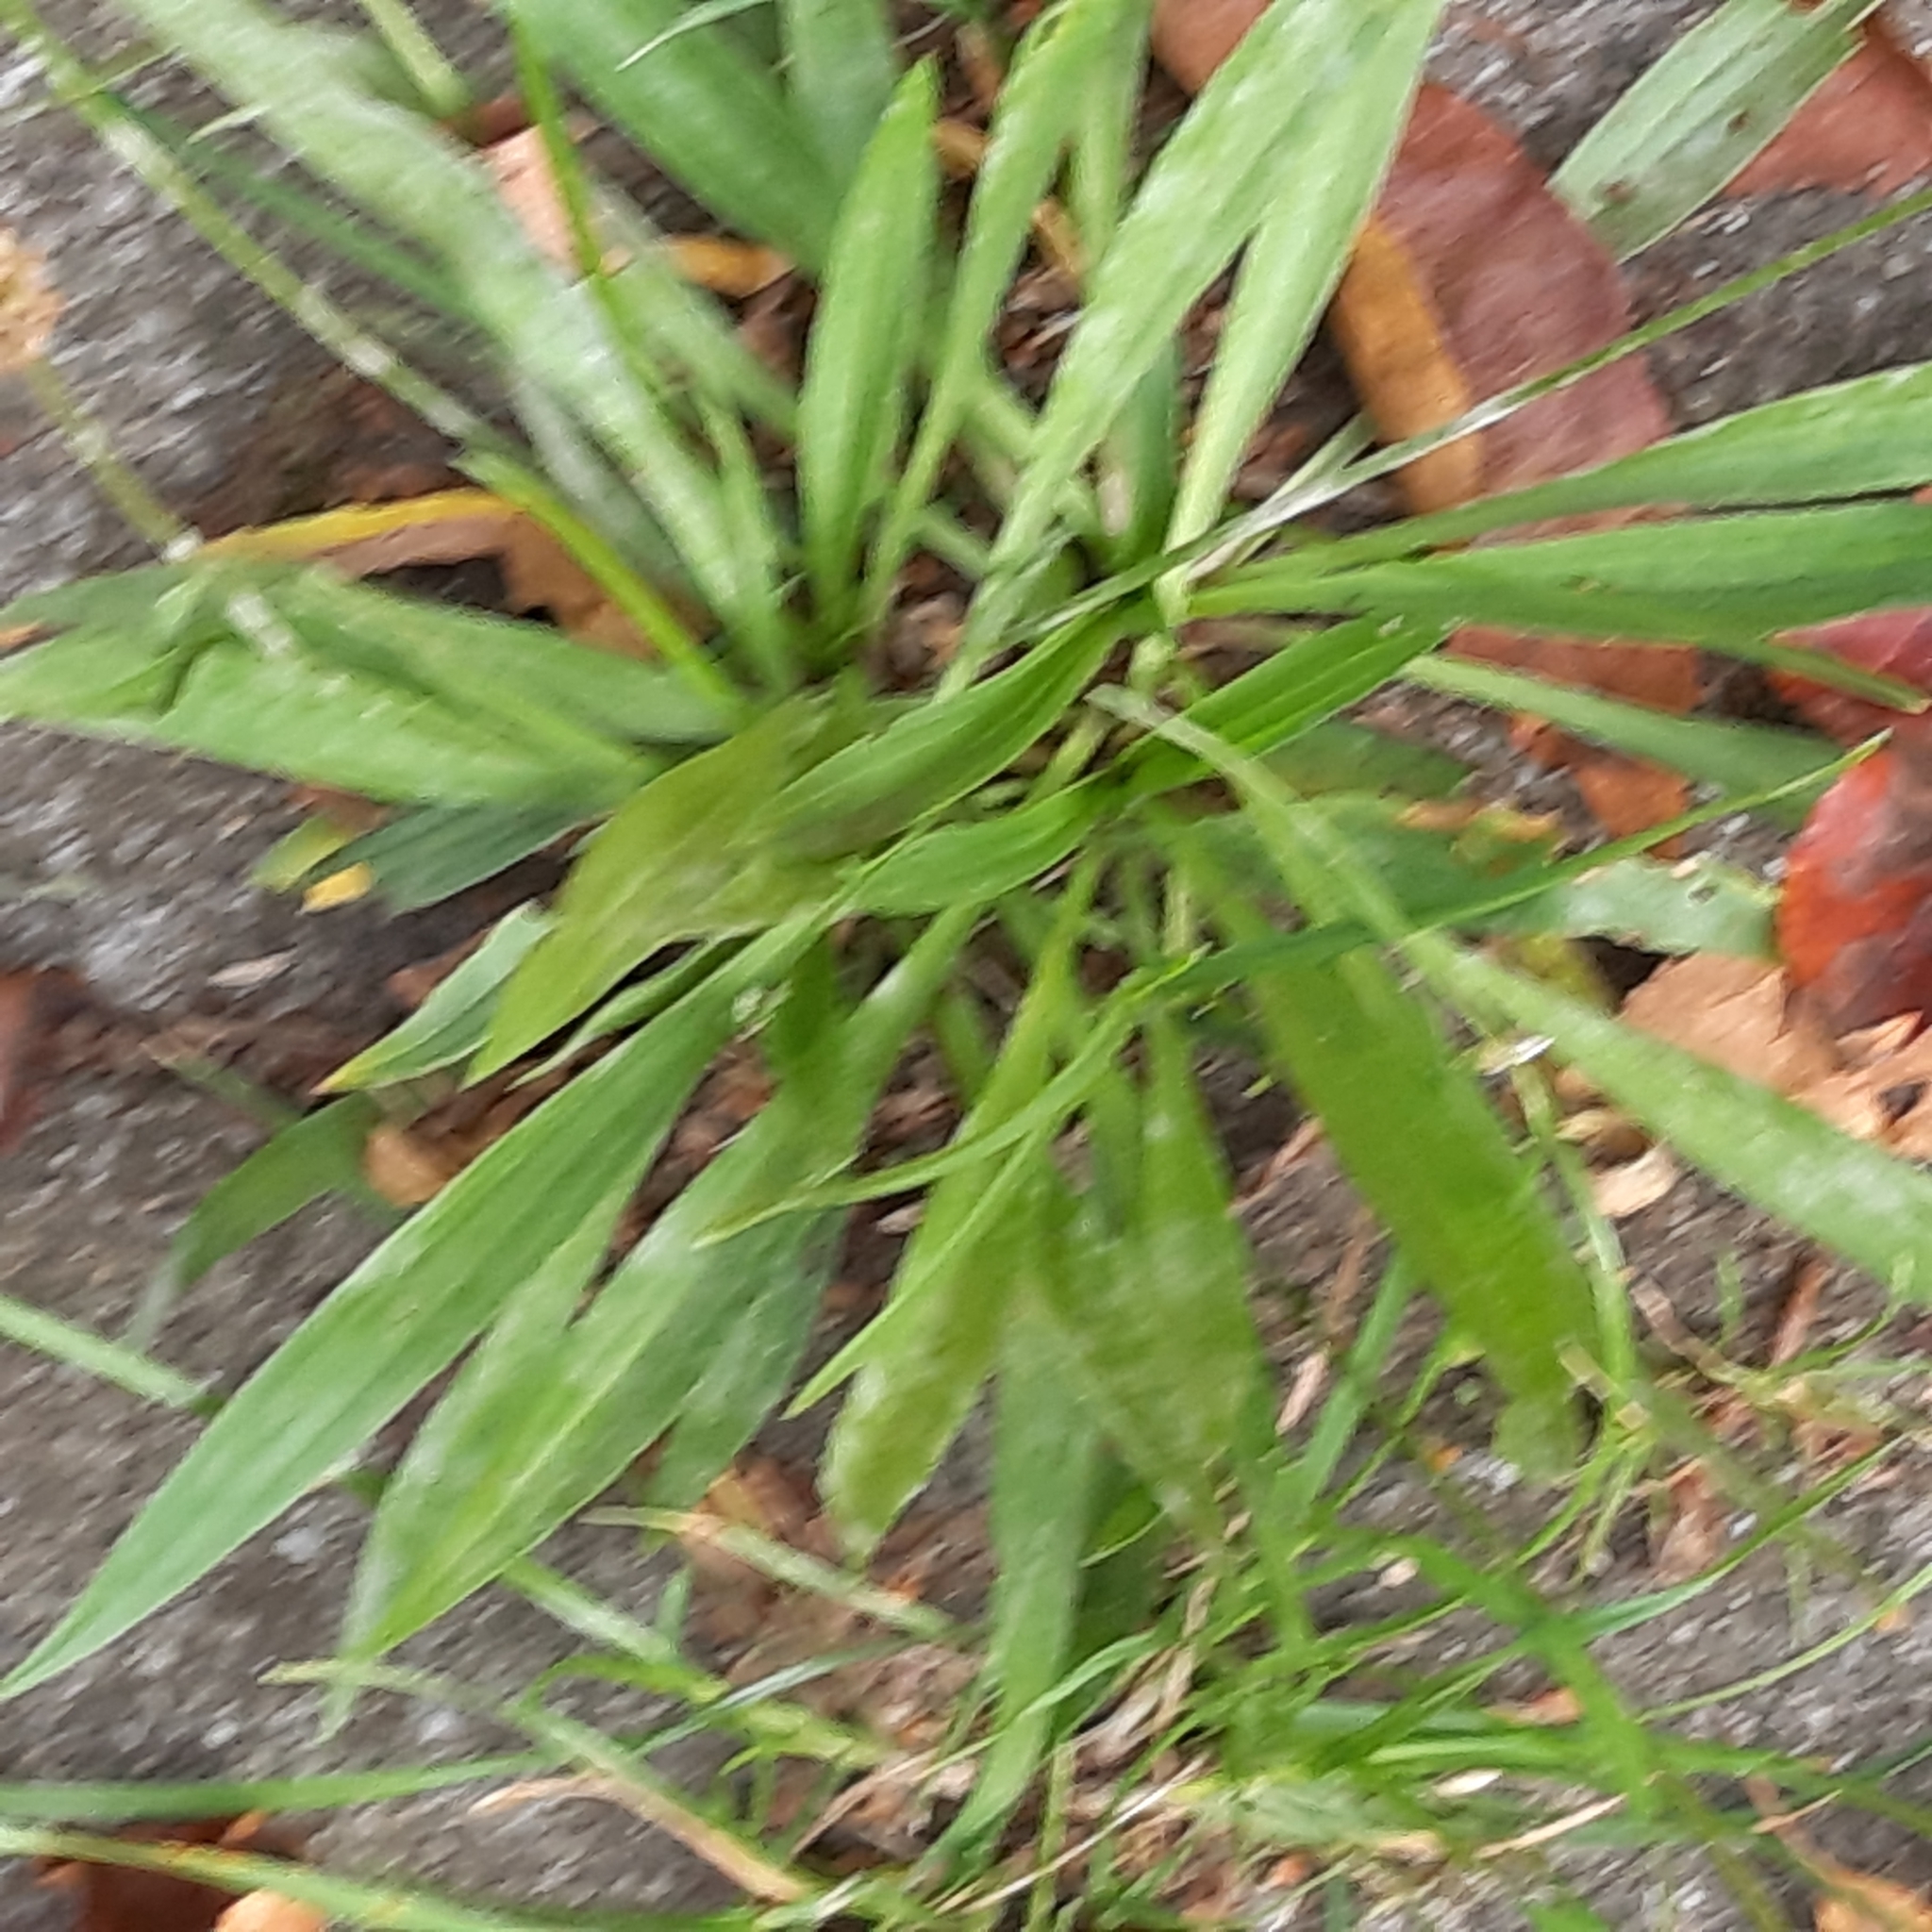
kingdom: Plantae
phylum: Tracheophyta
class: Magnoliopsida
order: Lamiales
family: Plantaginaceae
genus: Plantago
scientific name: Plantago lanceolata
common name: Ribwort plantain
